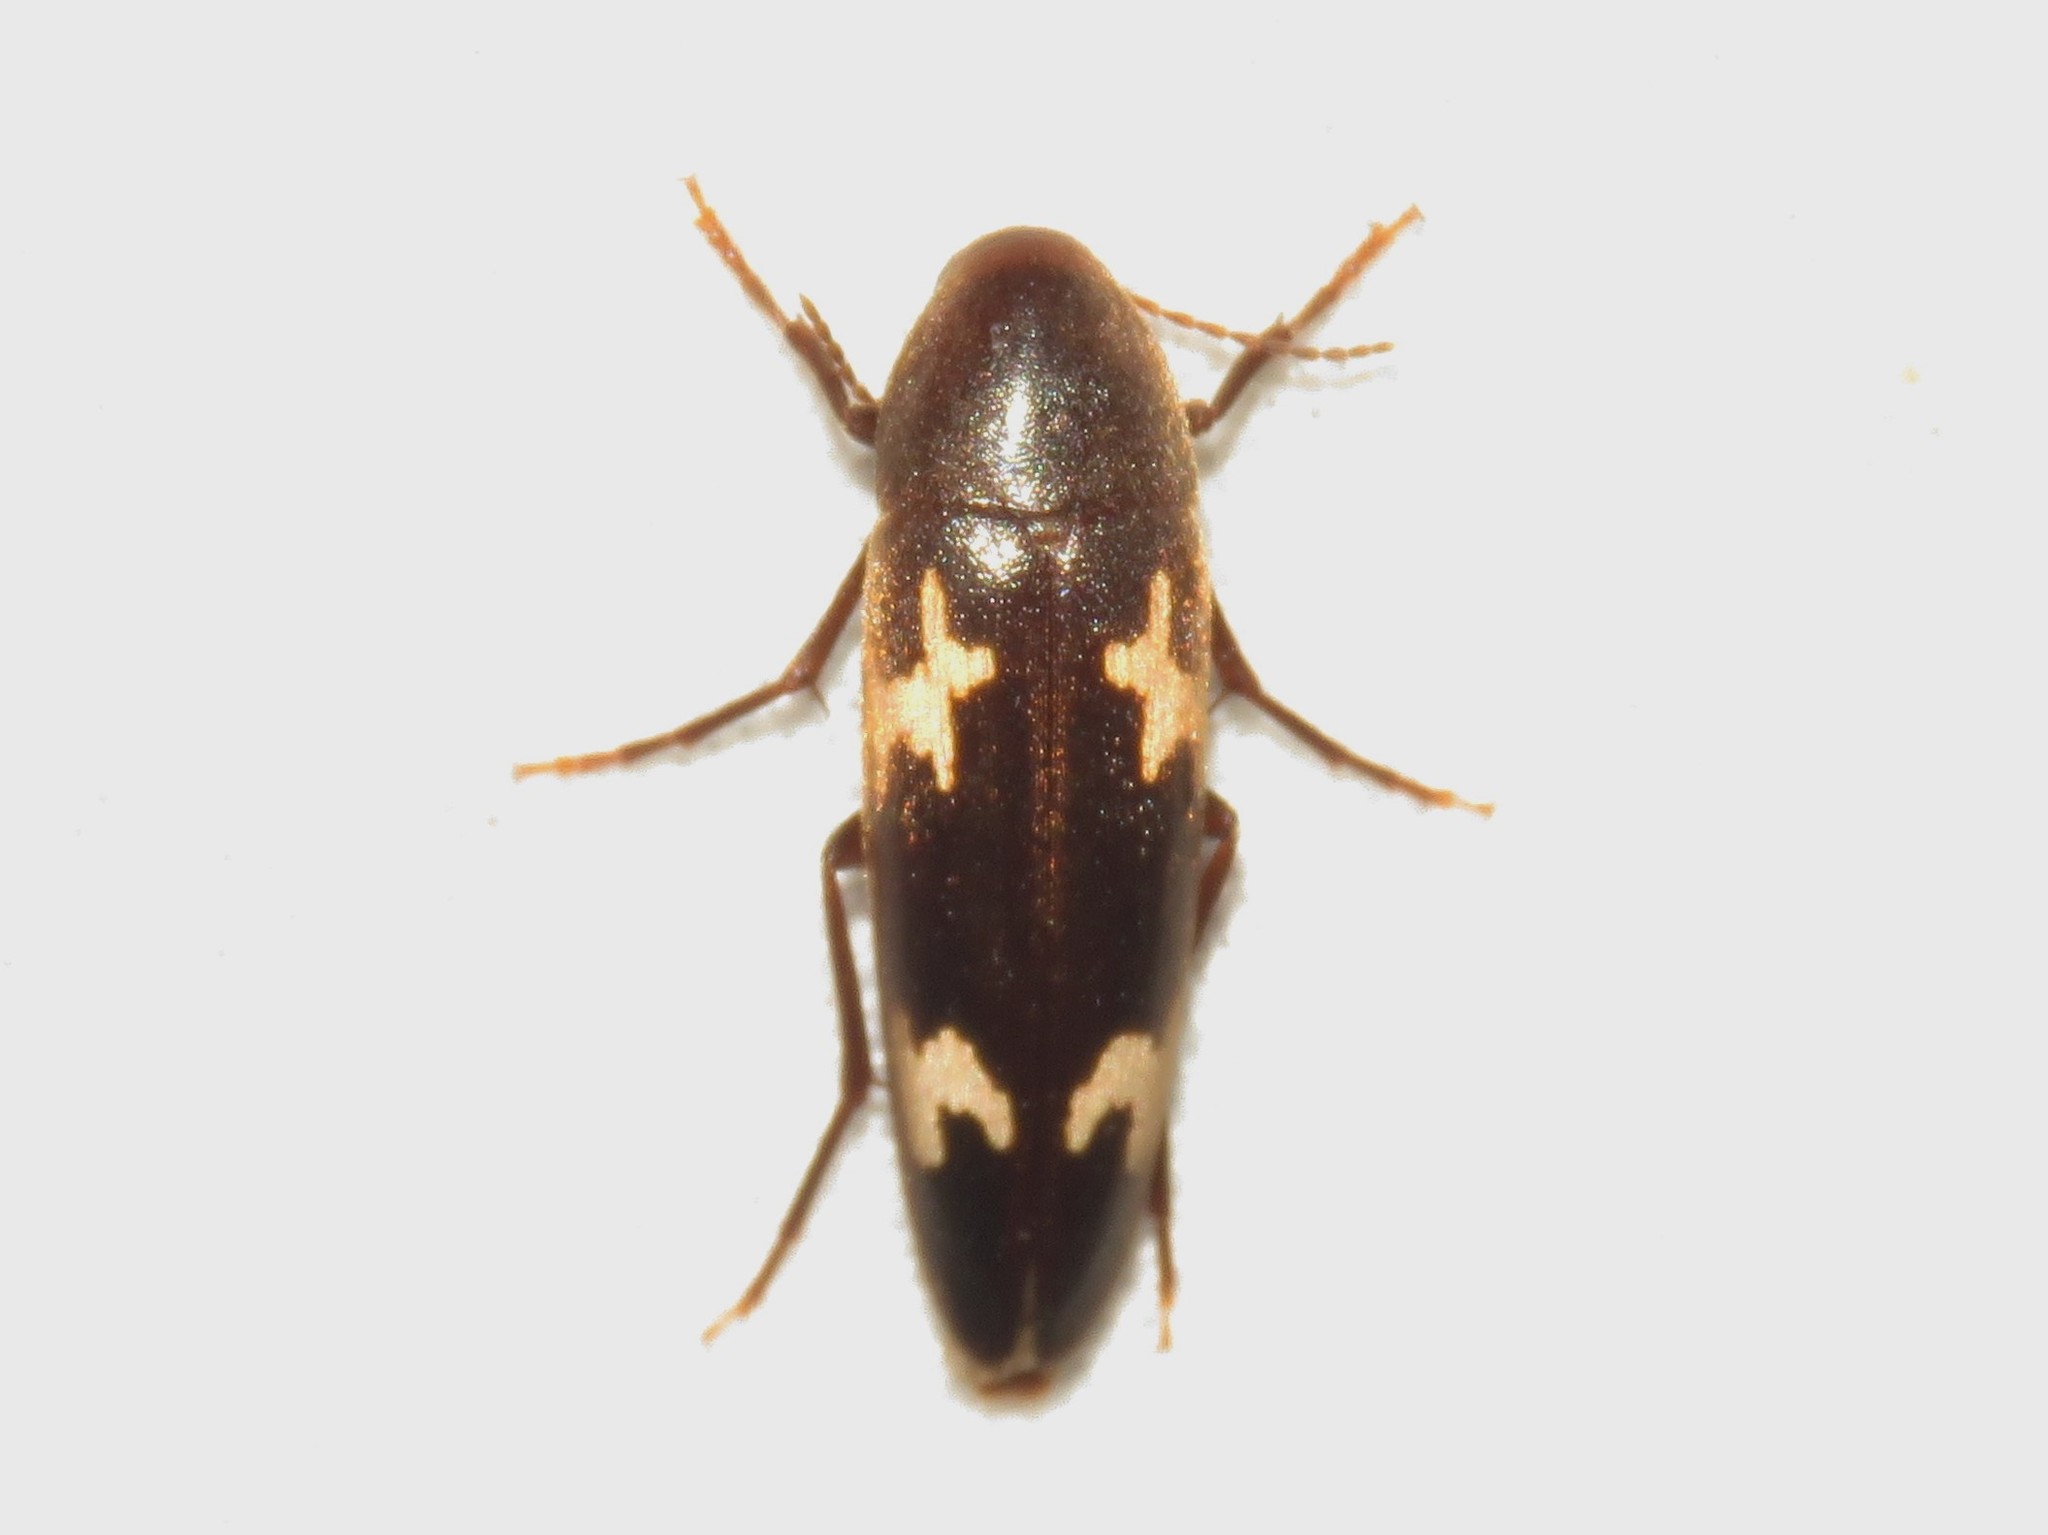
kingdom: Animalia
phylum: Arthropoda
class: Insecta
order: Coleoptera
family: Melandryidae
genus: Dircaea
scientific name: Dircaea liturata
